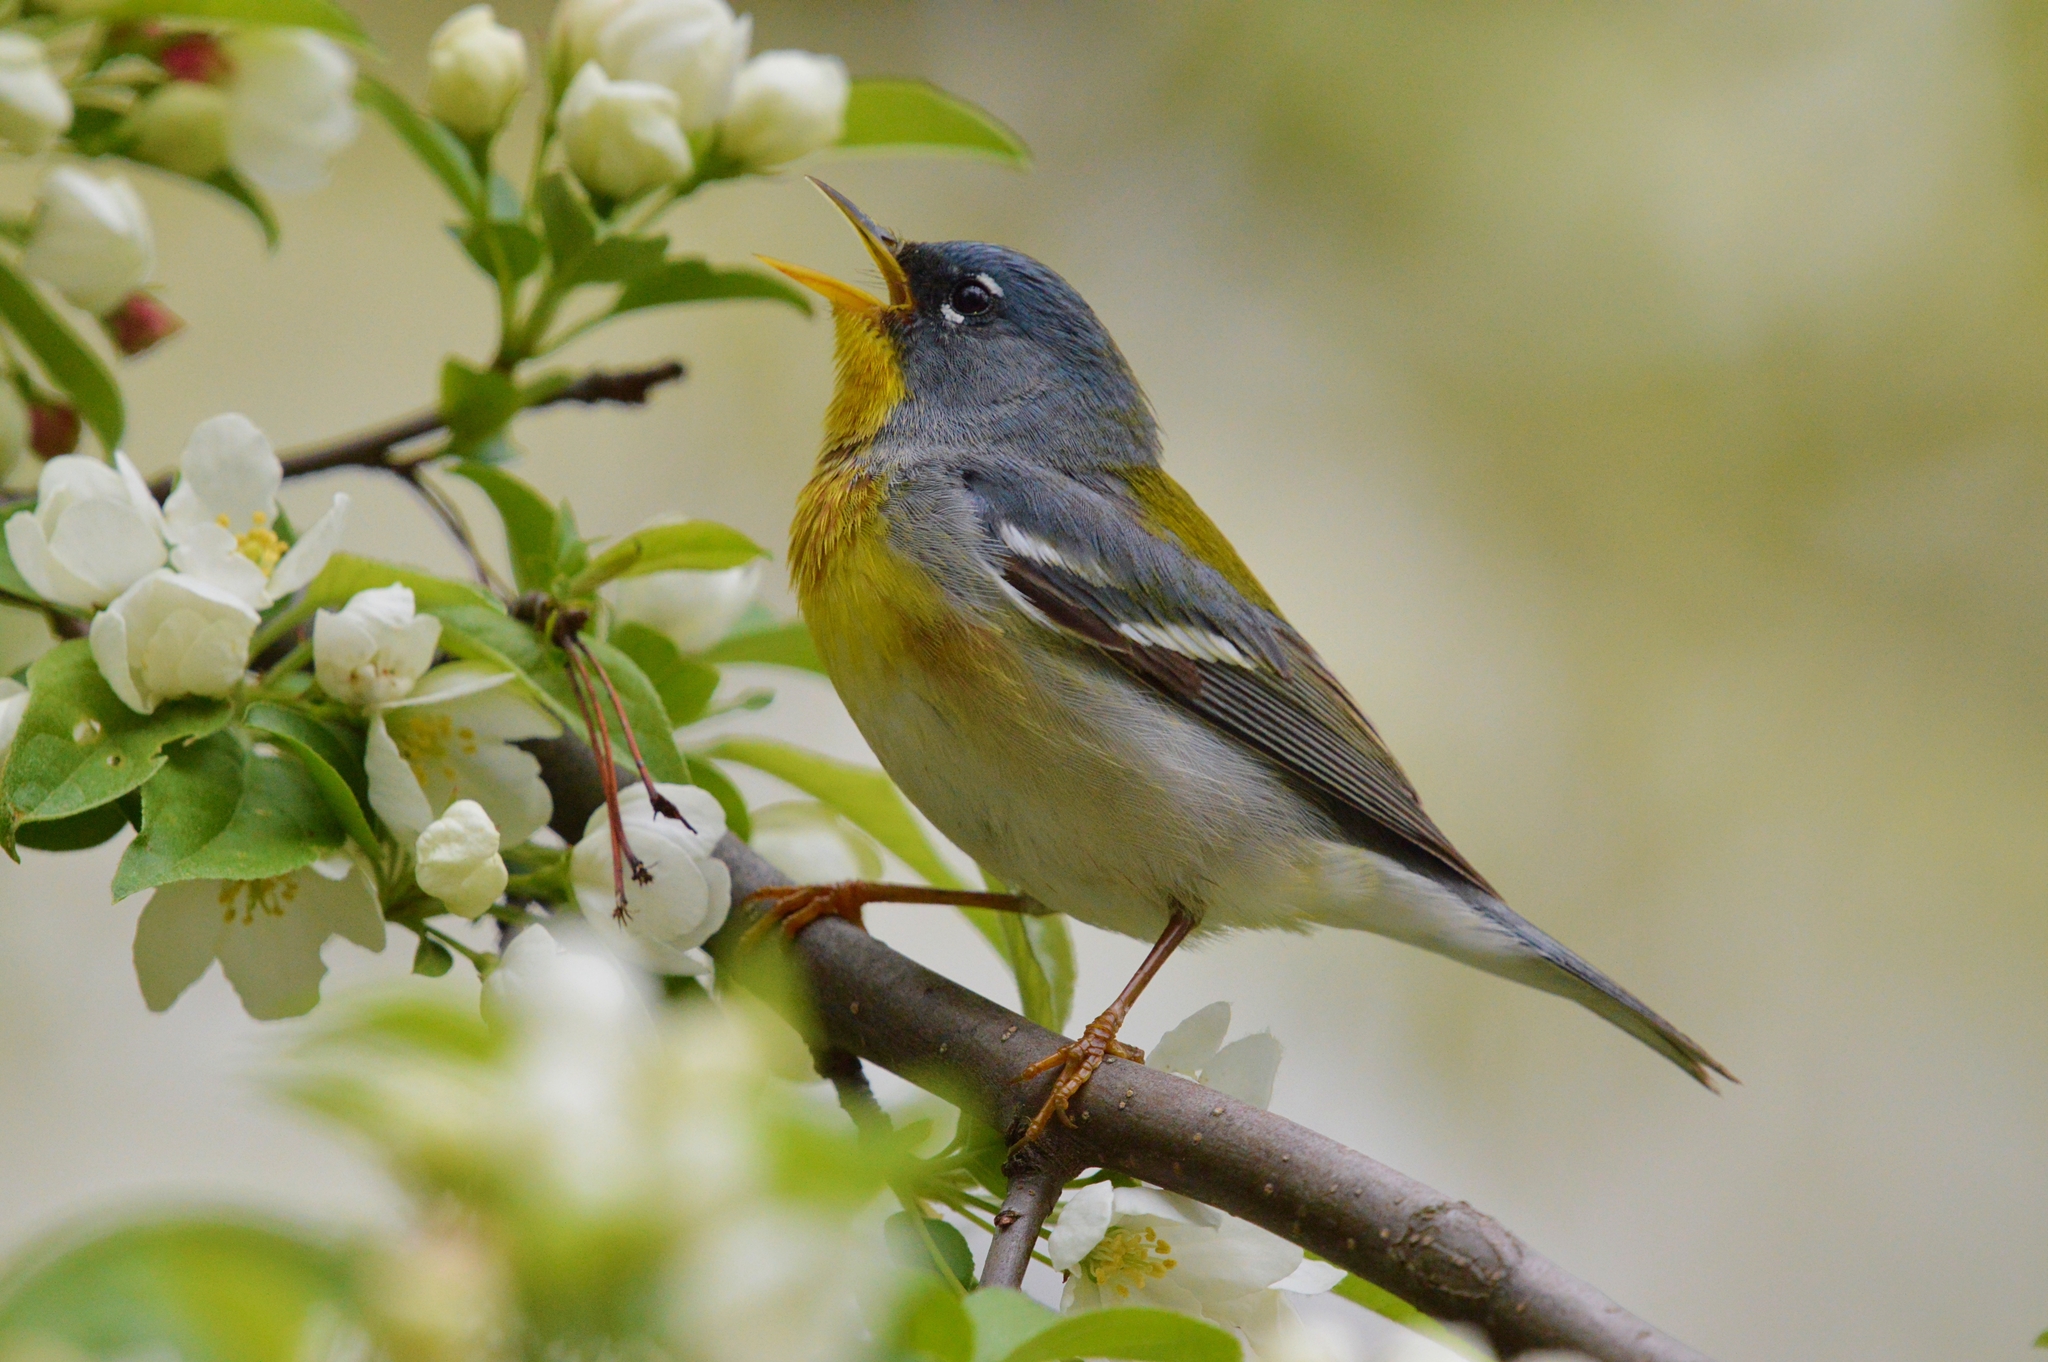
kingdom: Animalia
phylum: Chordata
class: Aves
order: Passeriformes
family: Parulidae
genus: Setophaga
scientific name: Setophaga americana
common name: Northern parula
